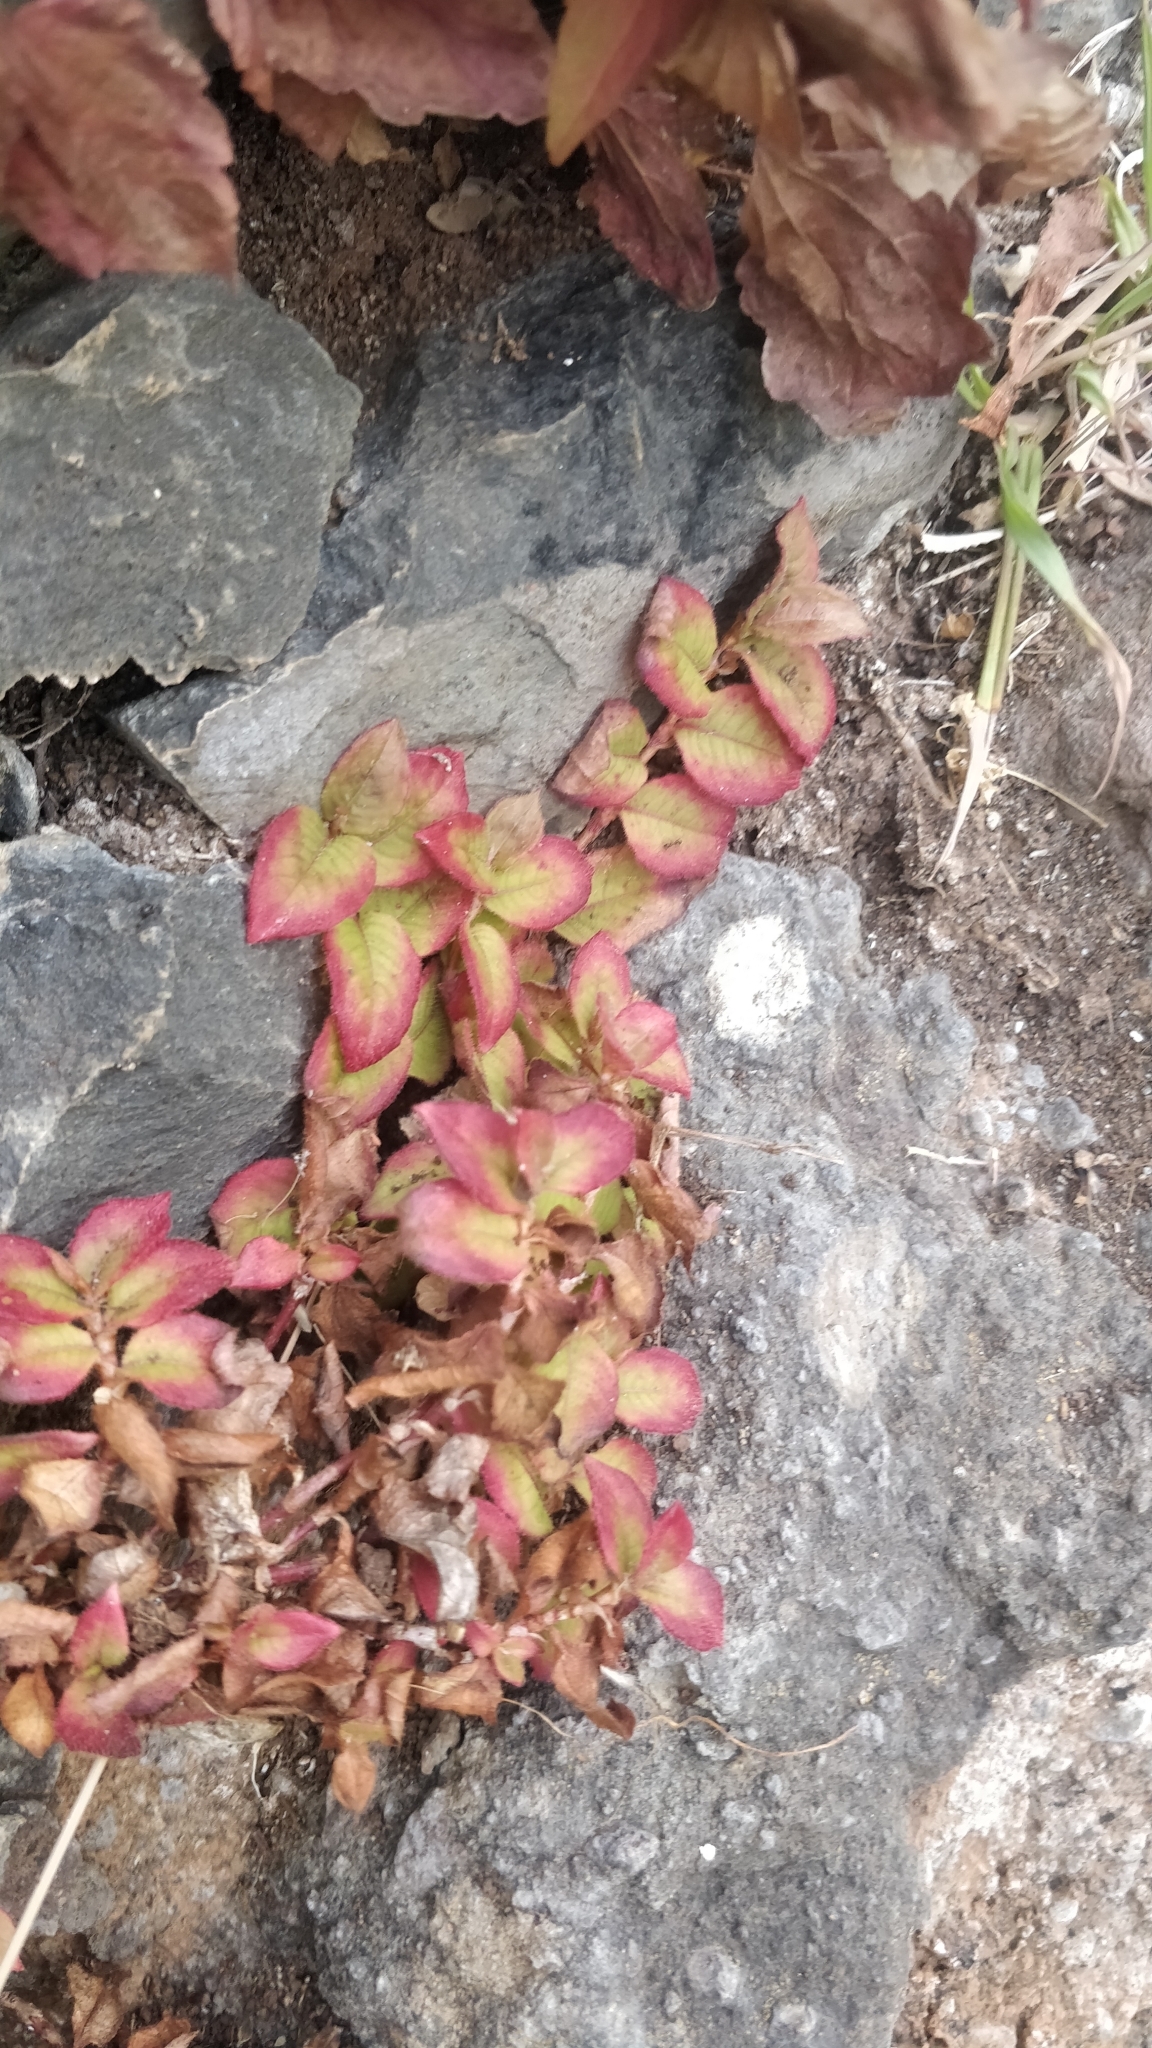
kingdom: Plantae
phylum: Tracheophyta
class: Magnoliopsida
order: Caryophyllales
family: Polygonaceae
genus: Persicaria
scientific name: Persicaria capitata
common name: Pinkhead smartweed
